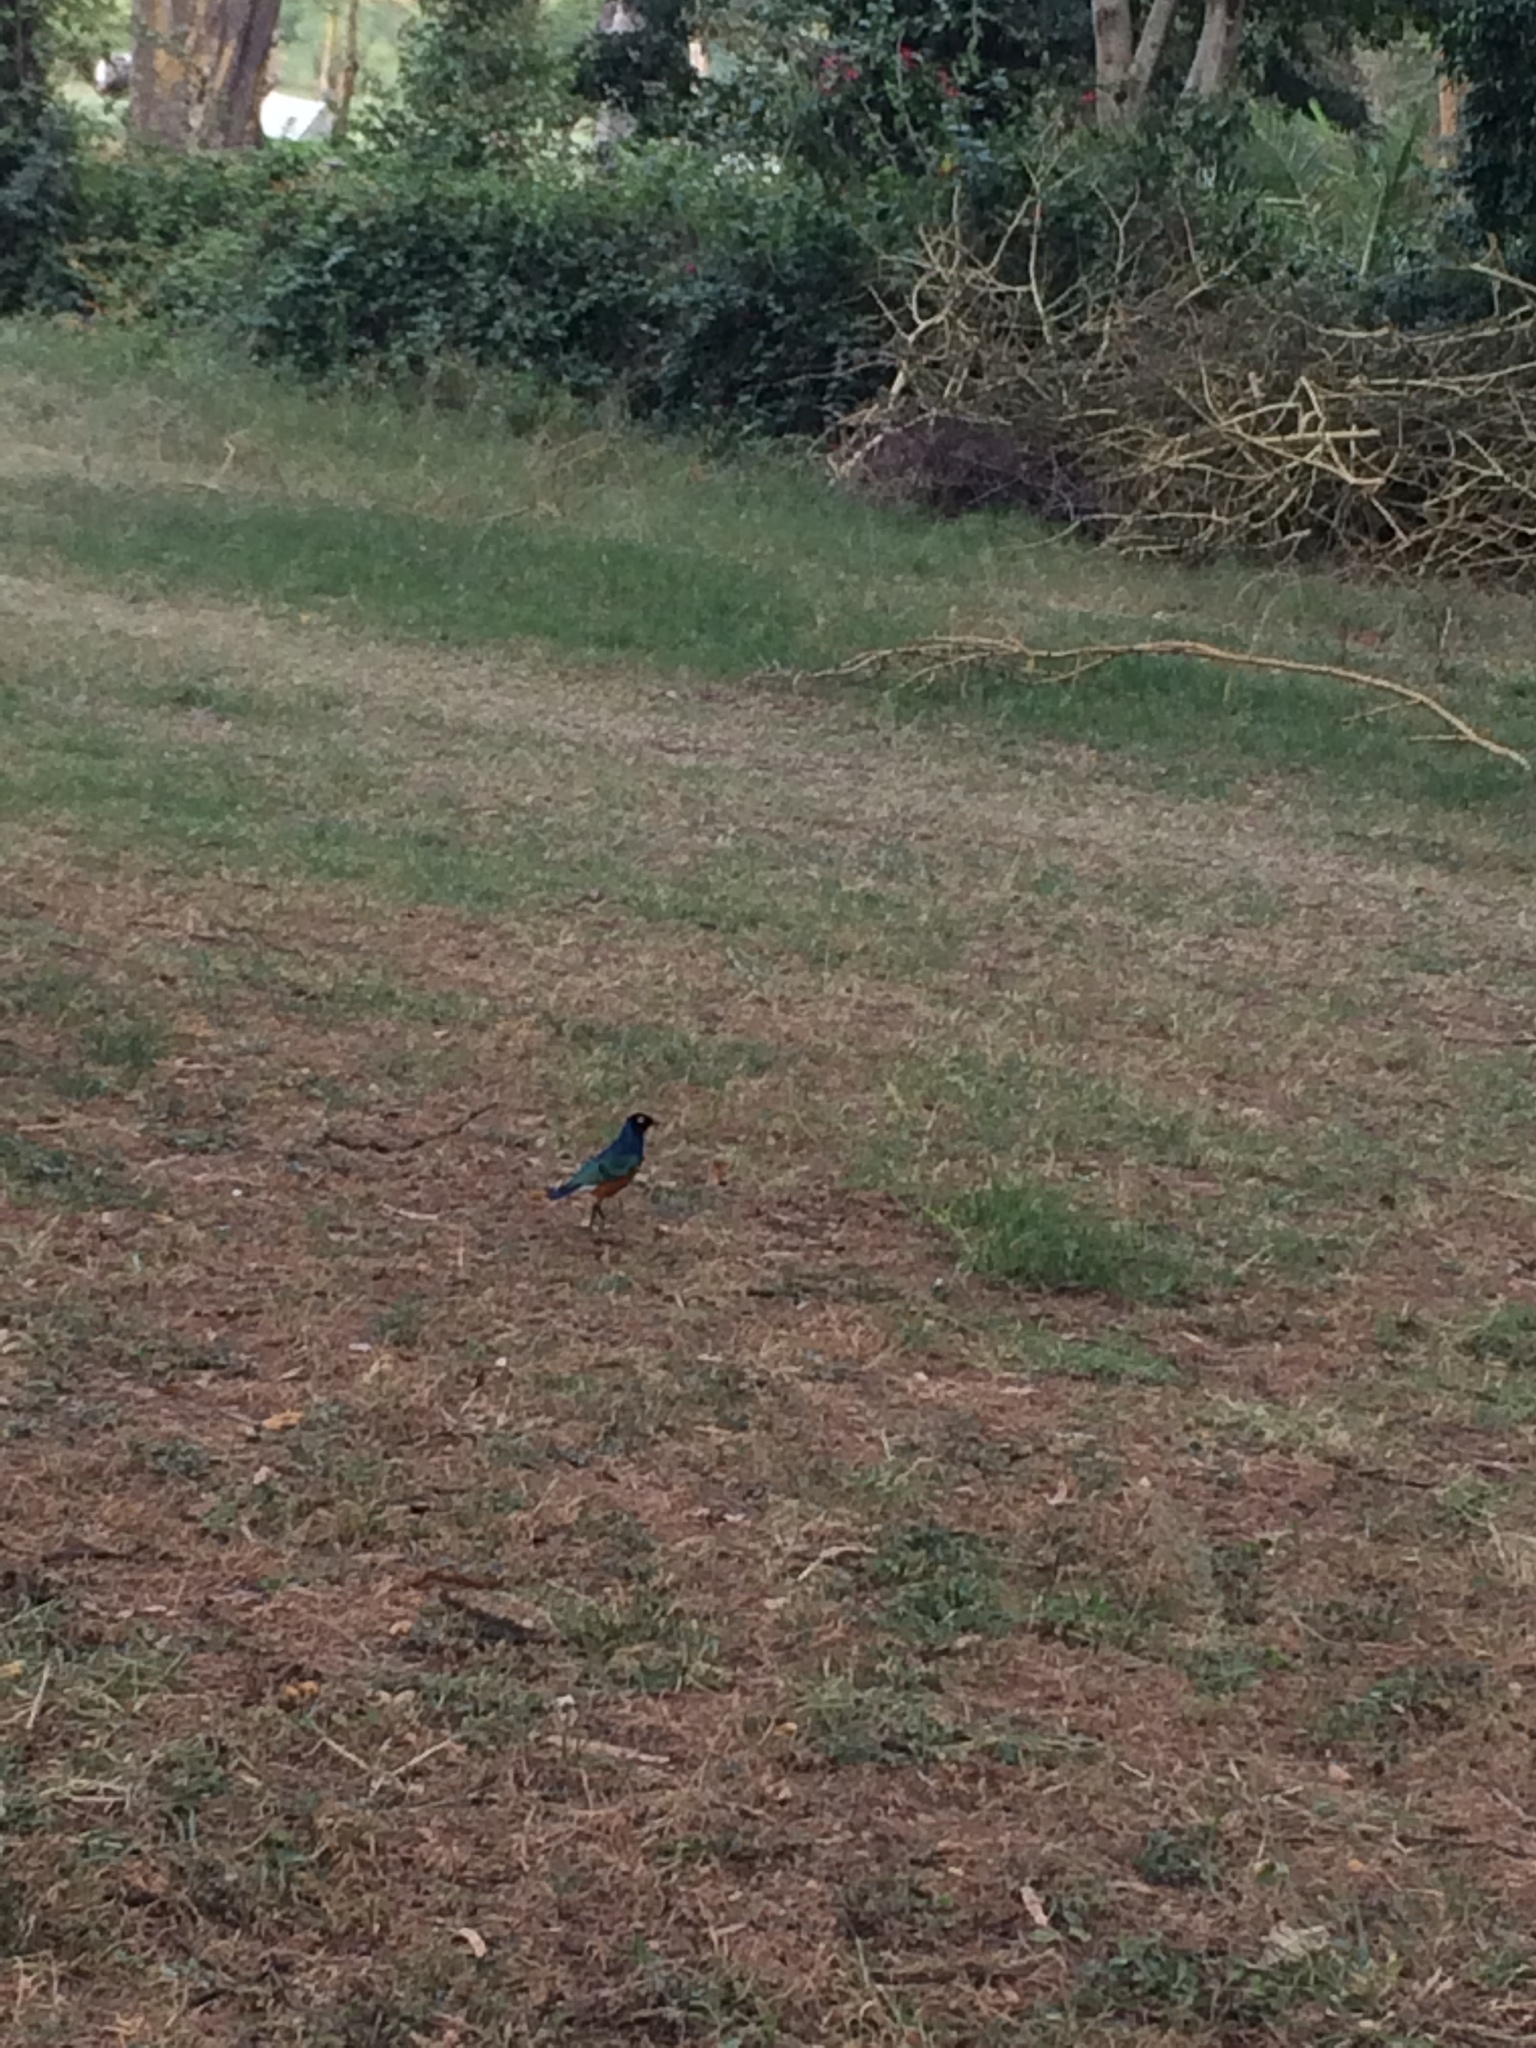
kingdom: Animalia
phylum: Chordata
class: Aves
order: Passeriformes
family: Sturnidae
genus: Lamprotornis
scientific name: Lamprotornis superbus
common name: Superb starling
